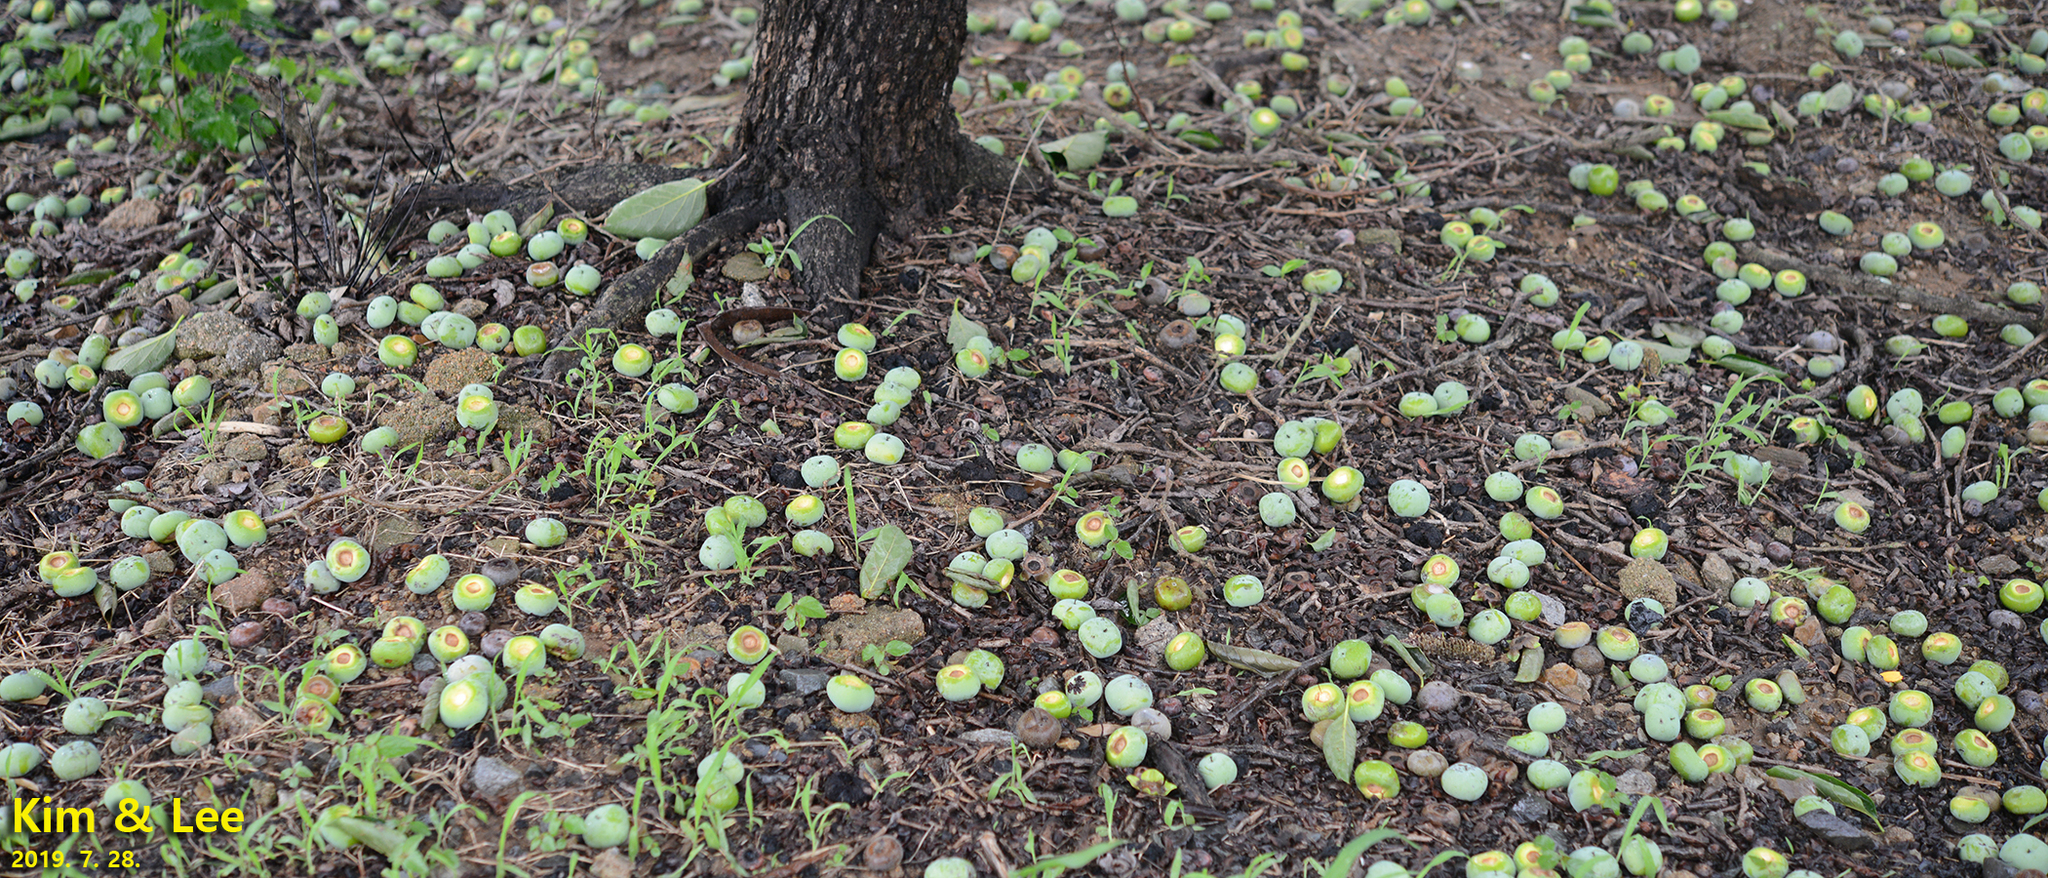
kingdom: Plantae
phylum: Tracheophyta
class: Magnoliopsida
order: Ericales
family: Ebenaceae
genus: Diospyros
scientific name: Diospyros kaki
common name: Persimmon
